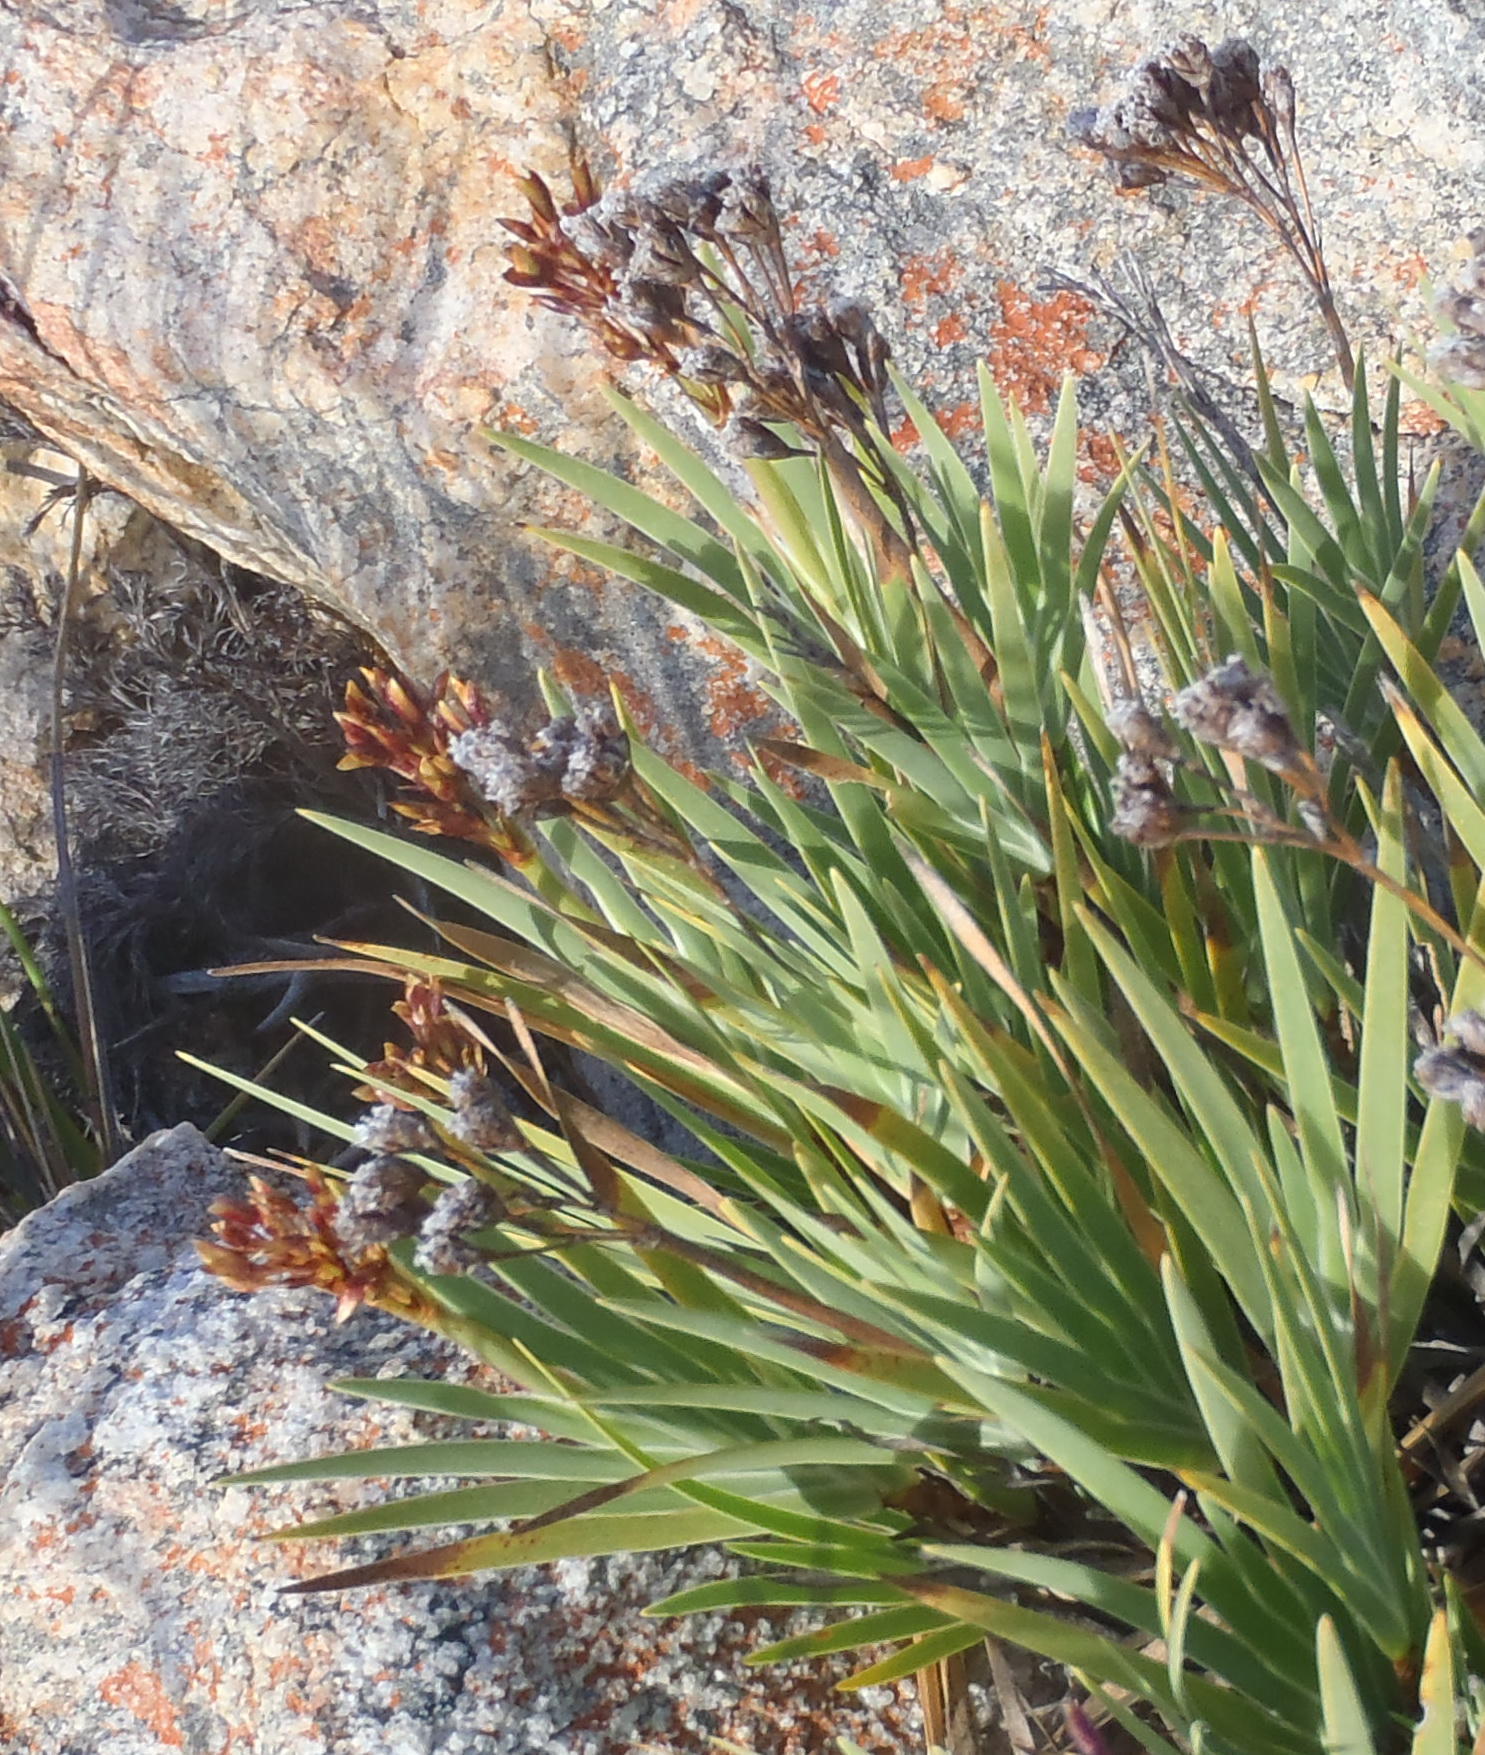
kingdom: Plantae
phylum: Tracheophyta
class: Liliopsida
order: Asparagales
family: Iridaceae
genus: Nivenia
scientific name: Nivenia binata
